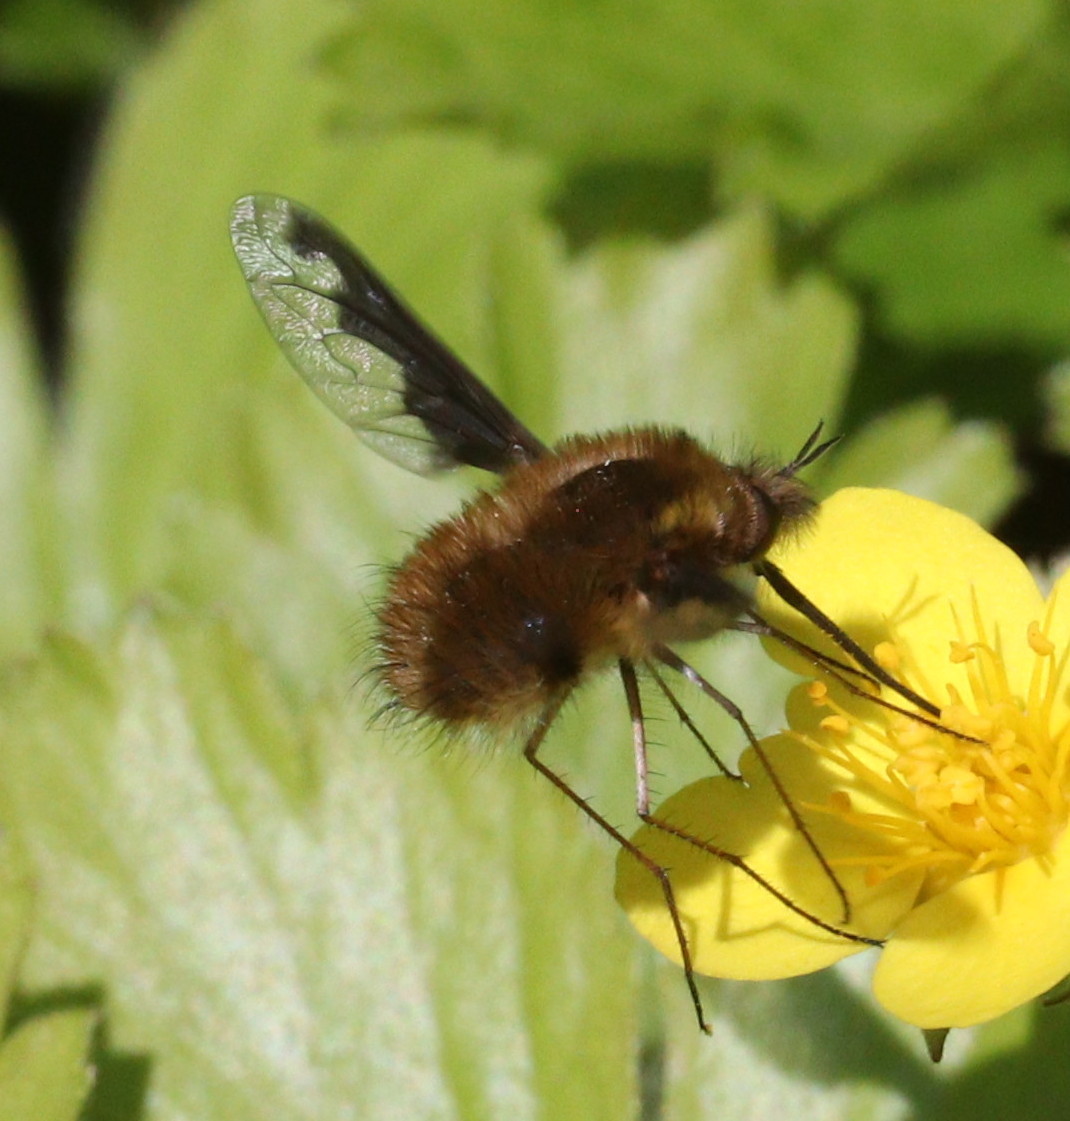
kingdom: Animalia
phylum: Arthropoda
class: Insecta
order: Diptera
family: Bombyliidae
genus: Bombylius
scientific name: Bombylius major
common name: Bee fly
